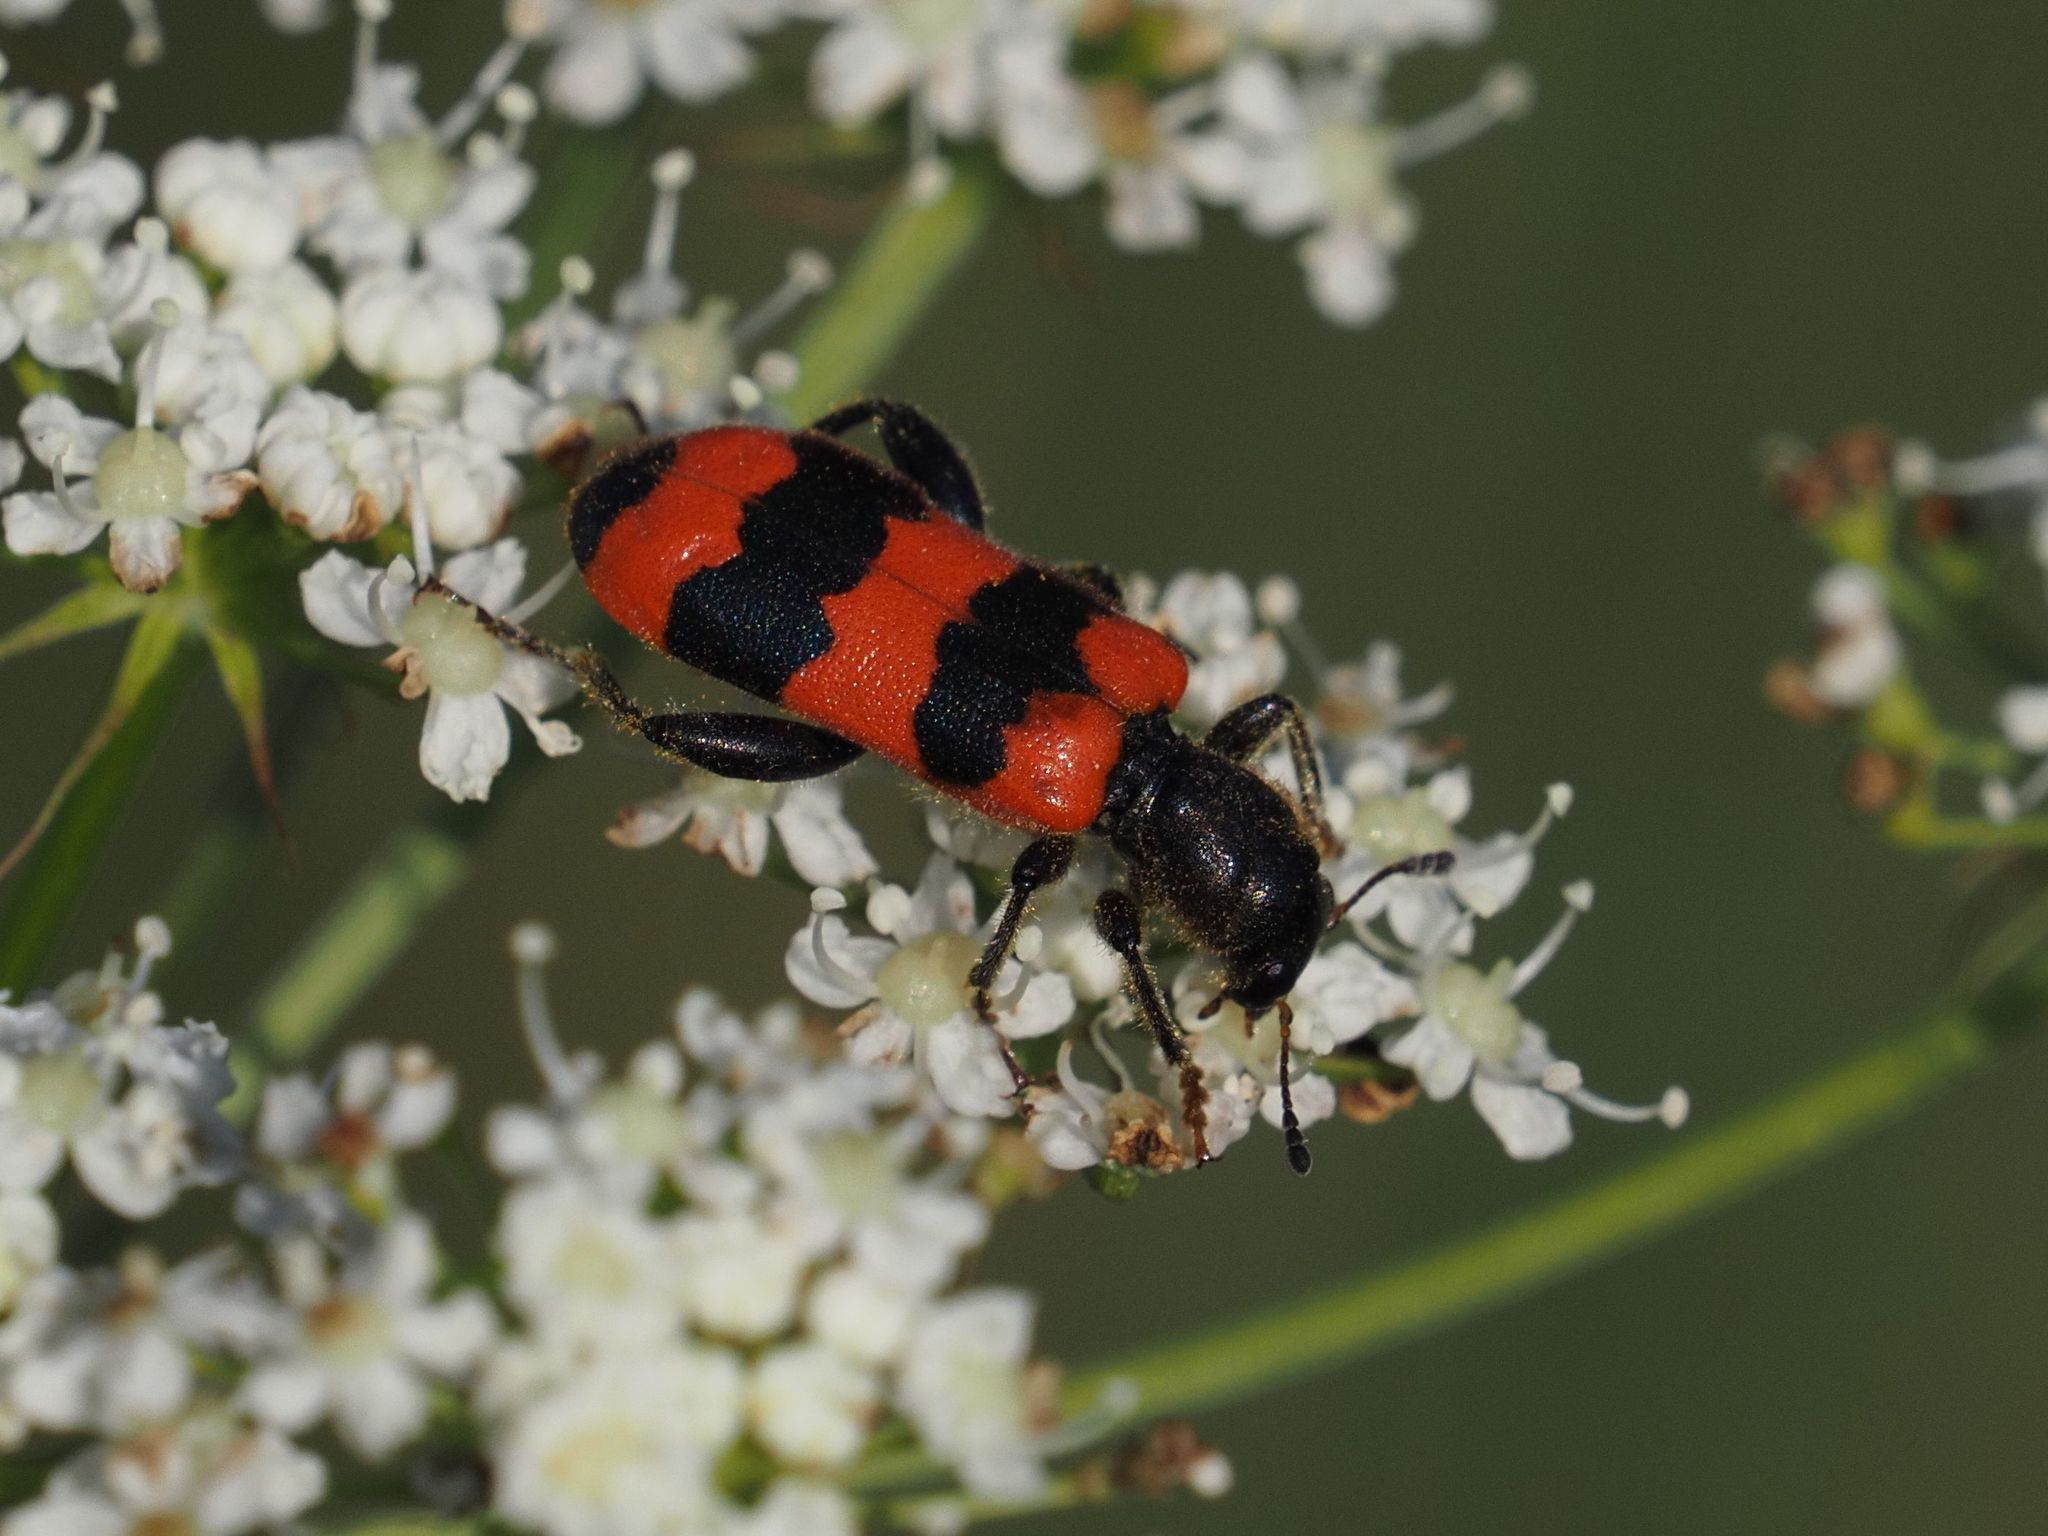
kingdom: Animalia
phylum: Arthropoda
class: Insecta
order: Coleoptera
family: Cleridae
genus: Trichodes
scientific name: Trichodes apiarius
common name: Bee-eating beetle
